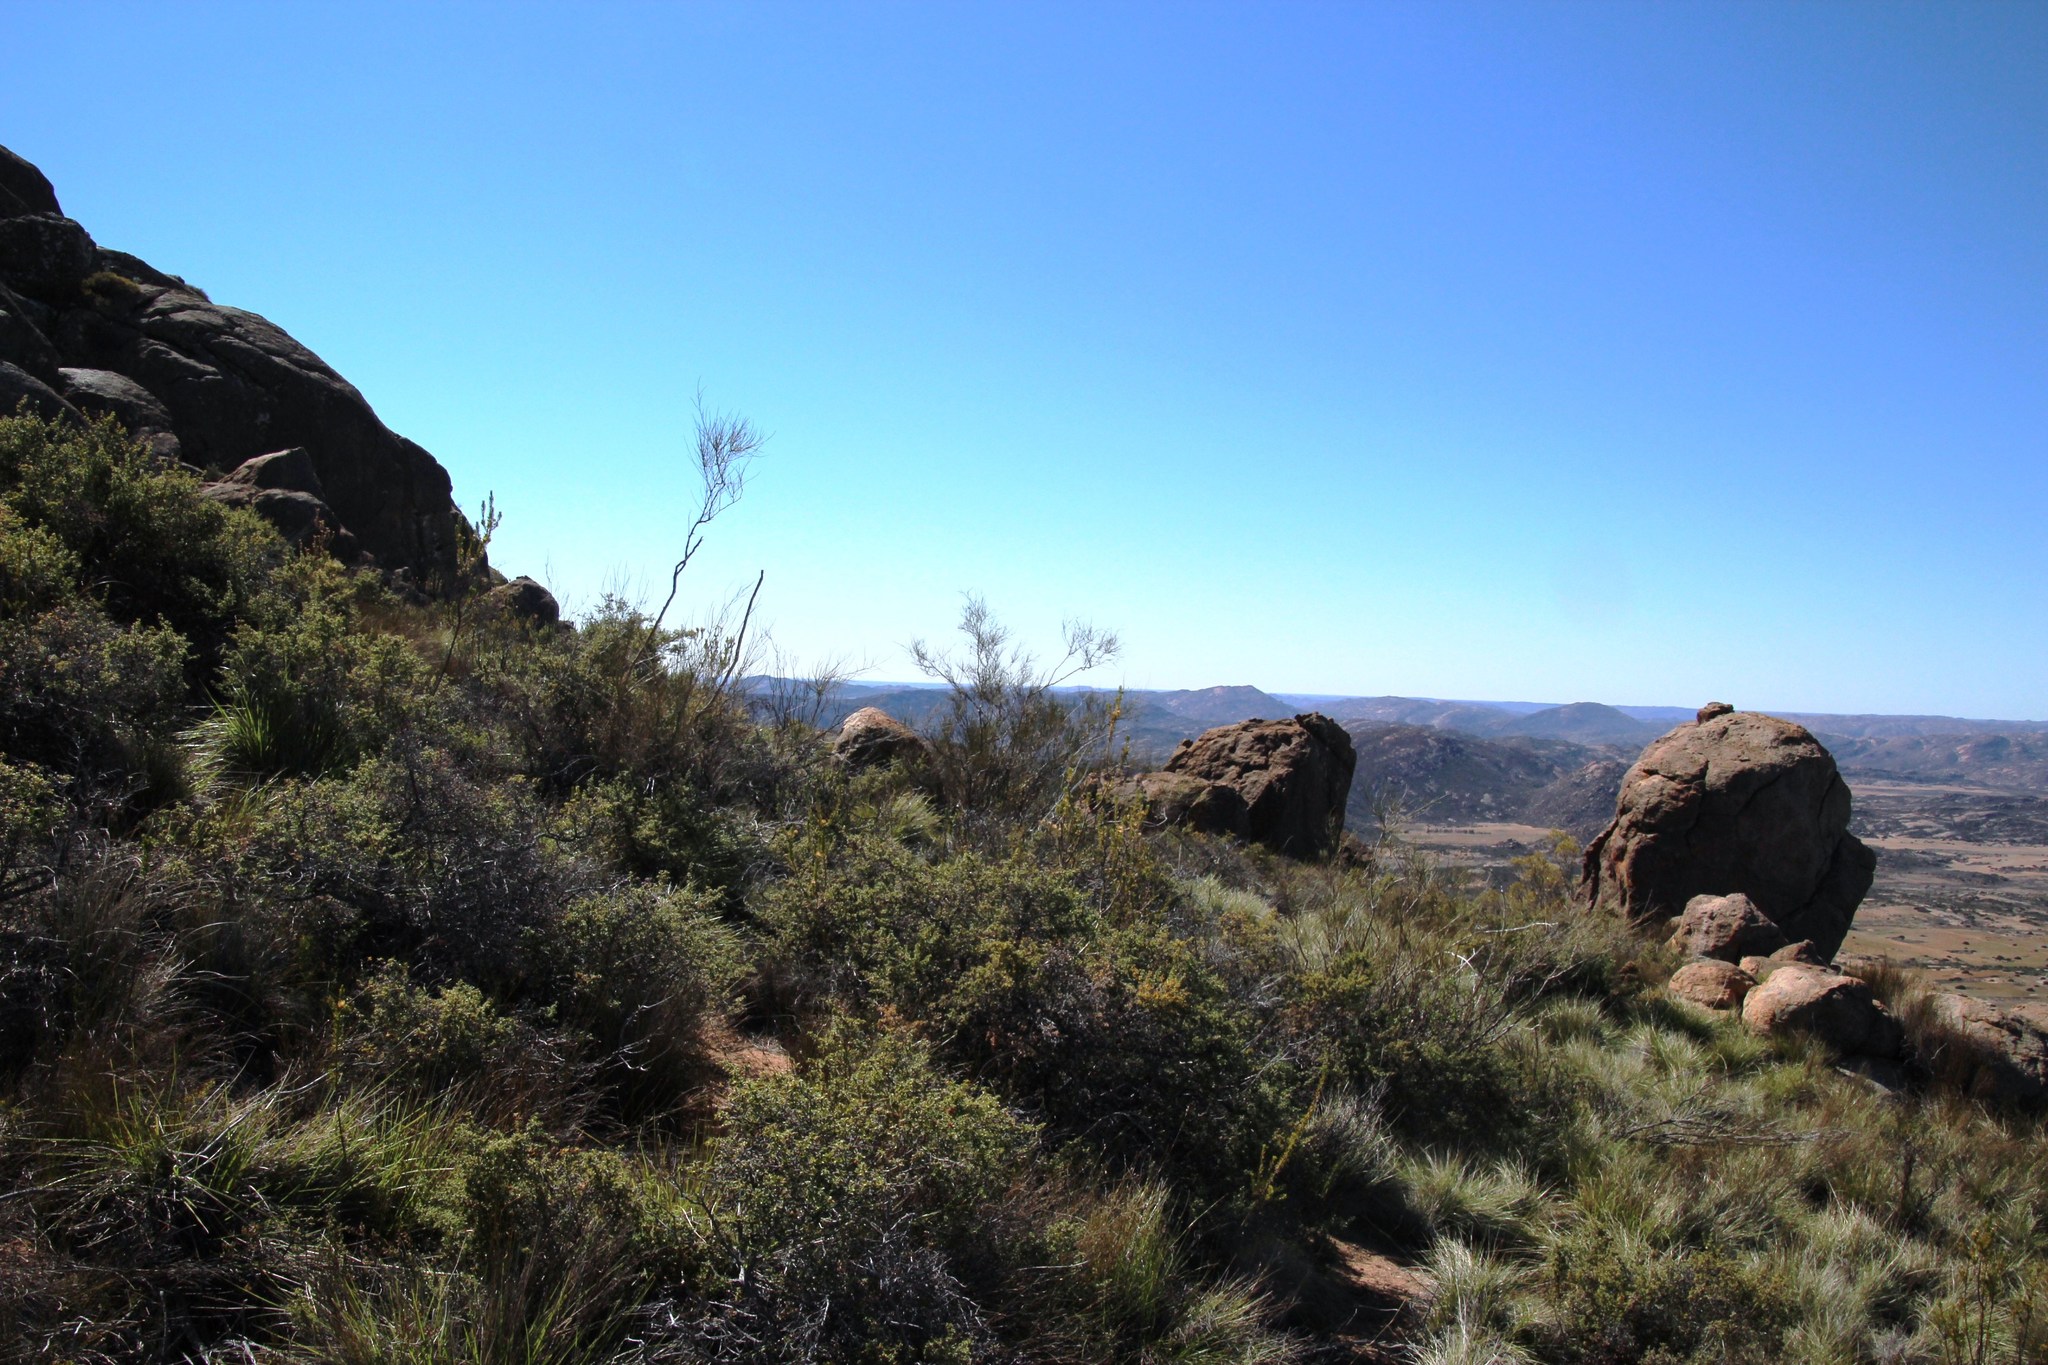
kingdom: Plantae
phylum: Tracheophyta
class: Magnoliopsida
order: Fabales
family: Fabaceae
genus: Psoralea
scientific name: Psoralea glaucescens
